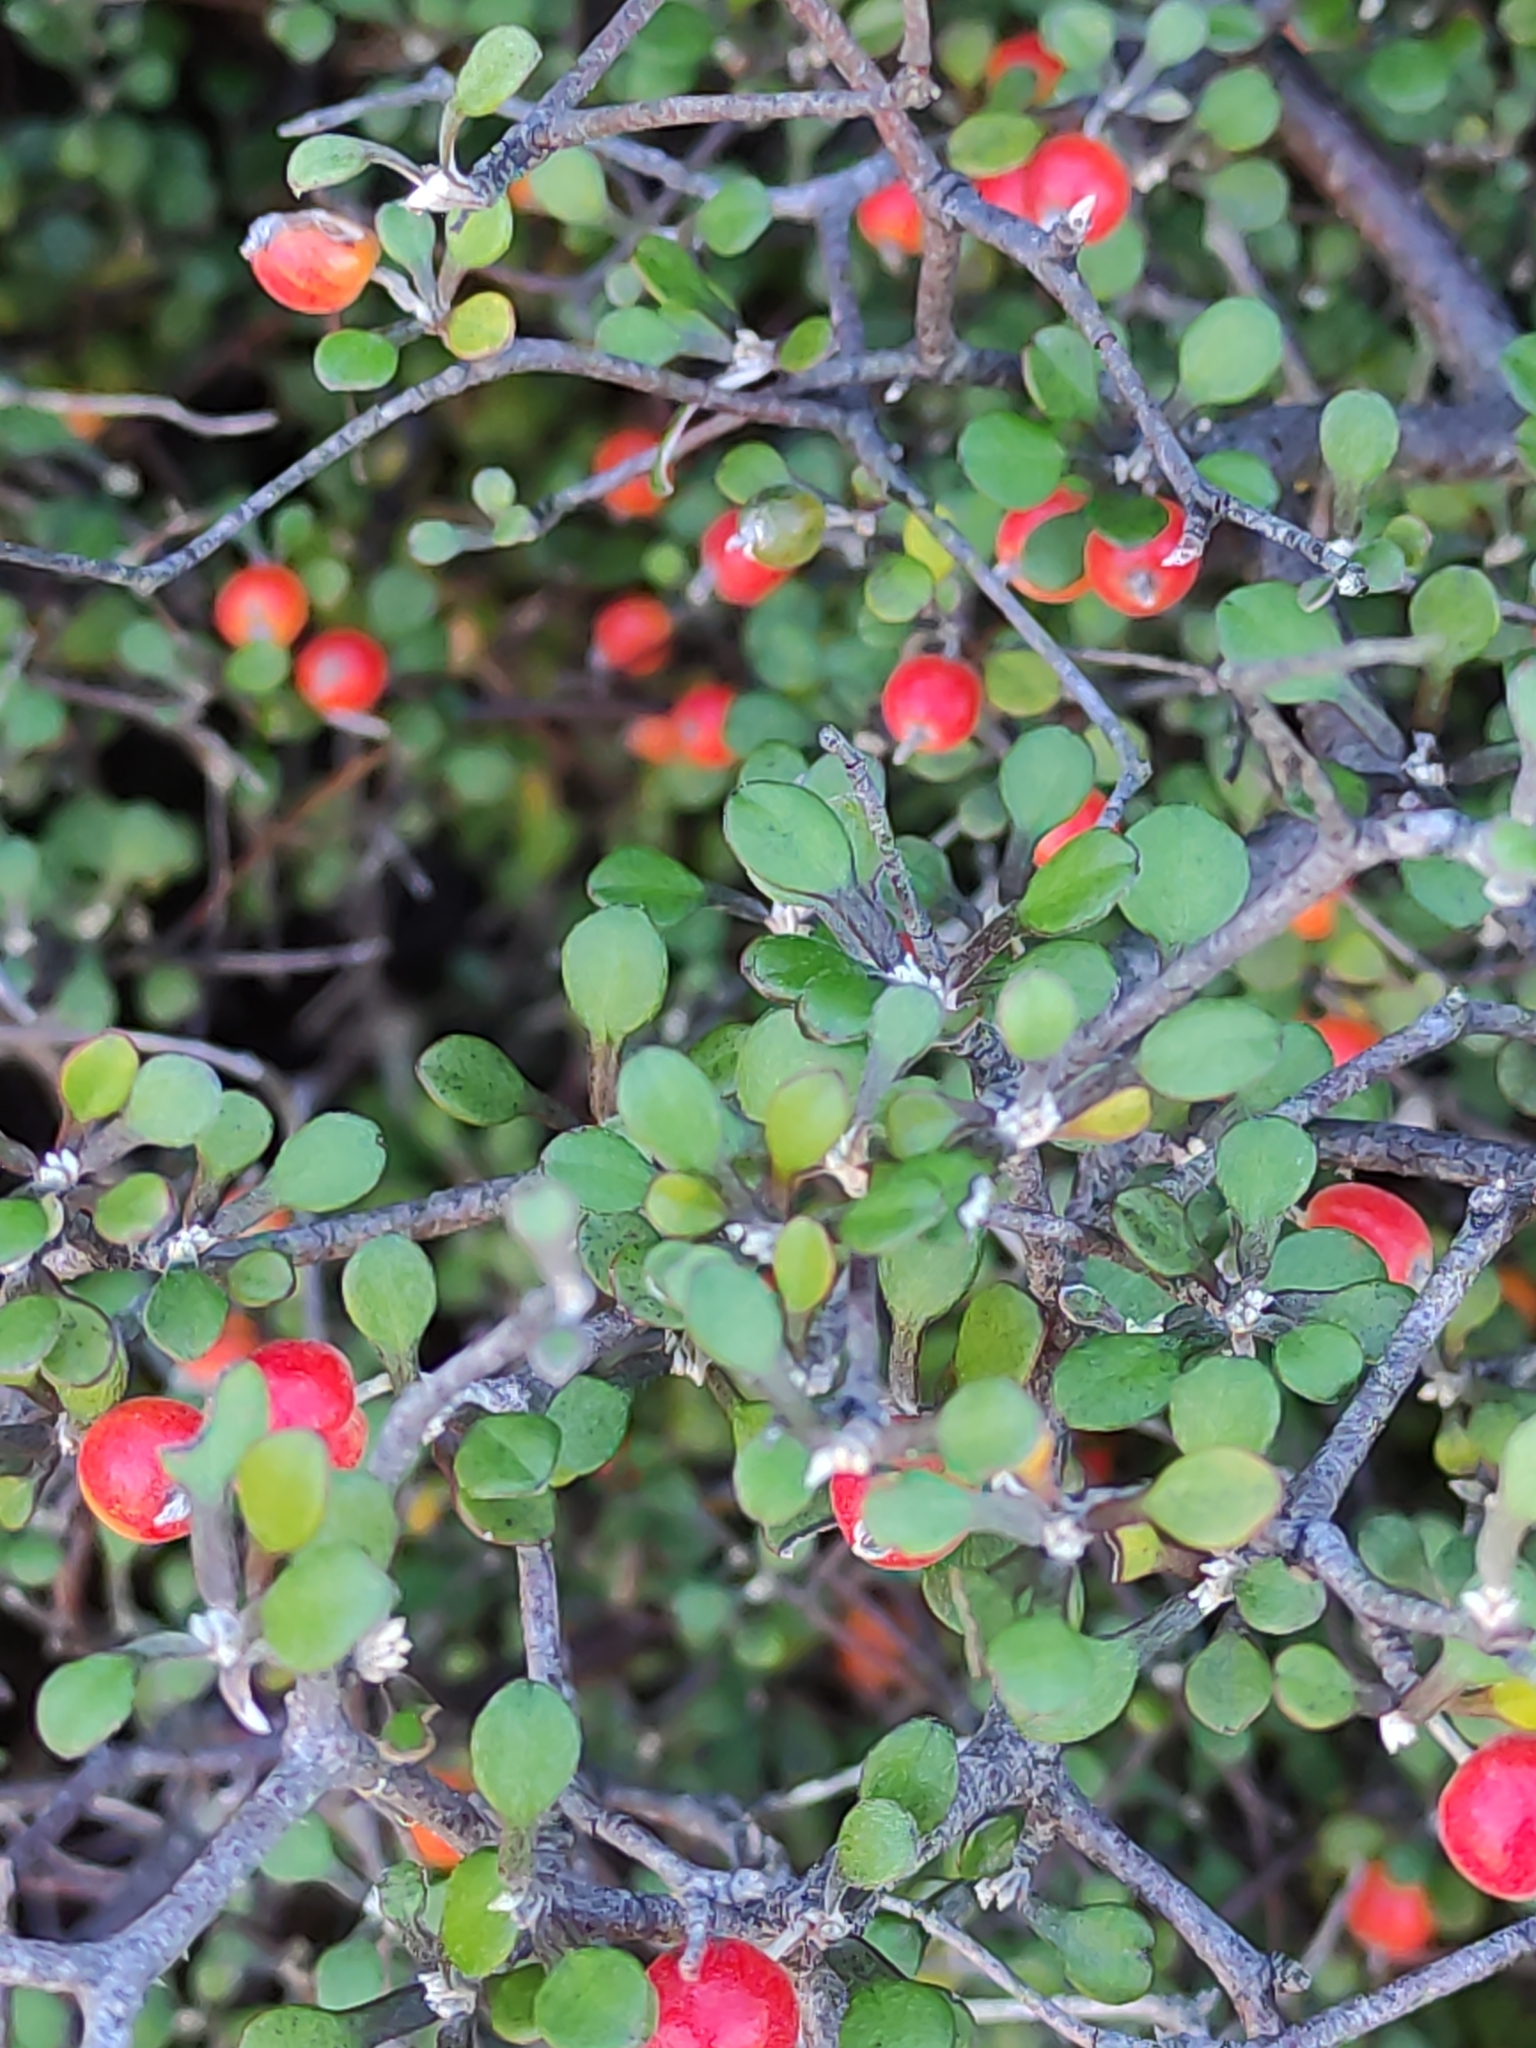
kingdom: Plantae
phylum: Tracheophyta
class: Magnoliopsida
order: Asterales
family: Argophyllaceae
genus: Corokia
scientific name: Corokia cotoneaster
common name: Wire nettingbush
